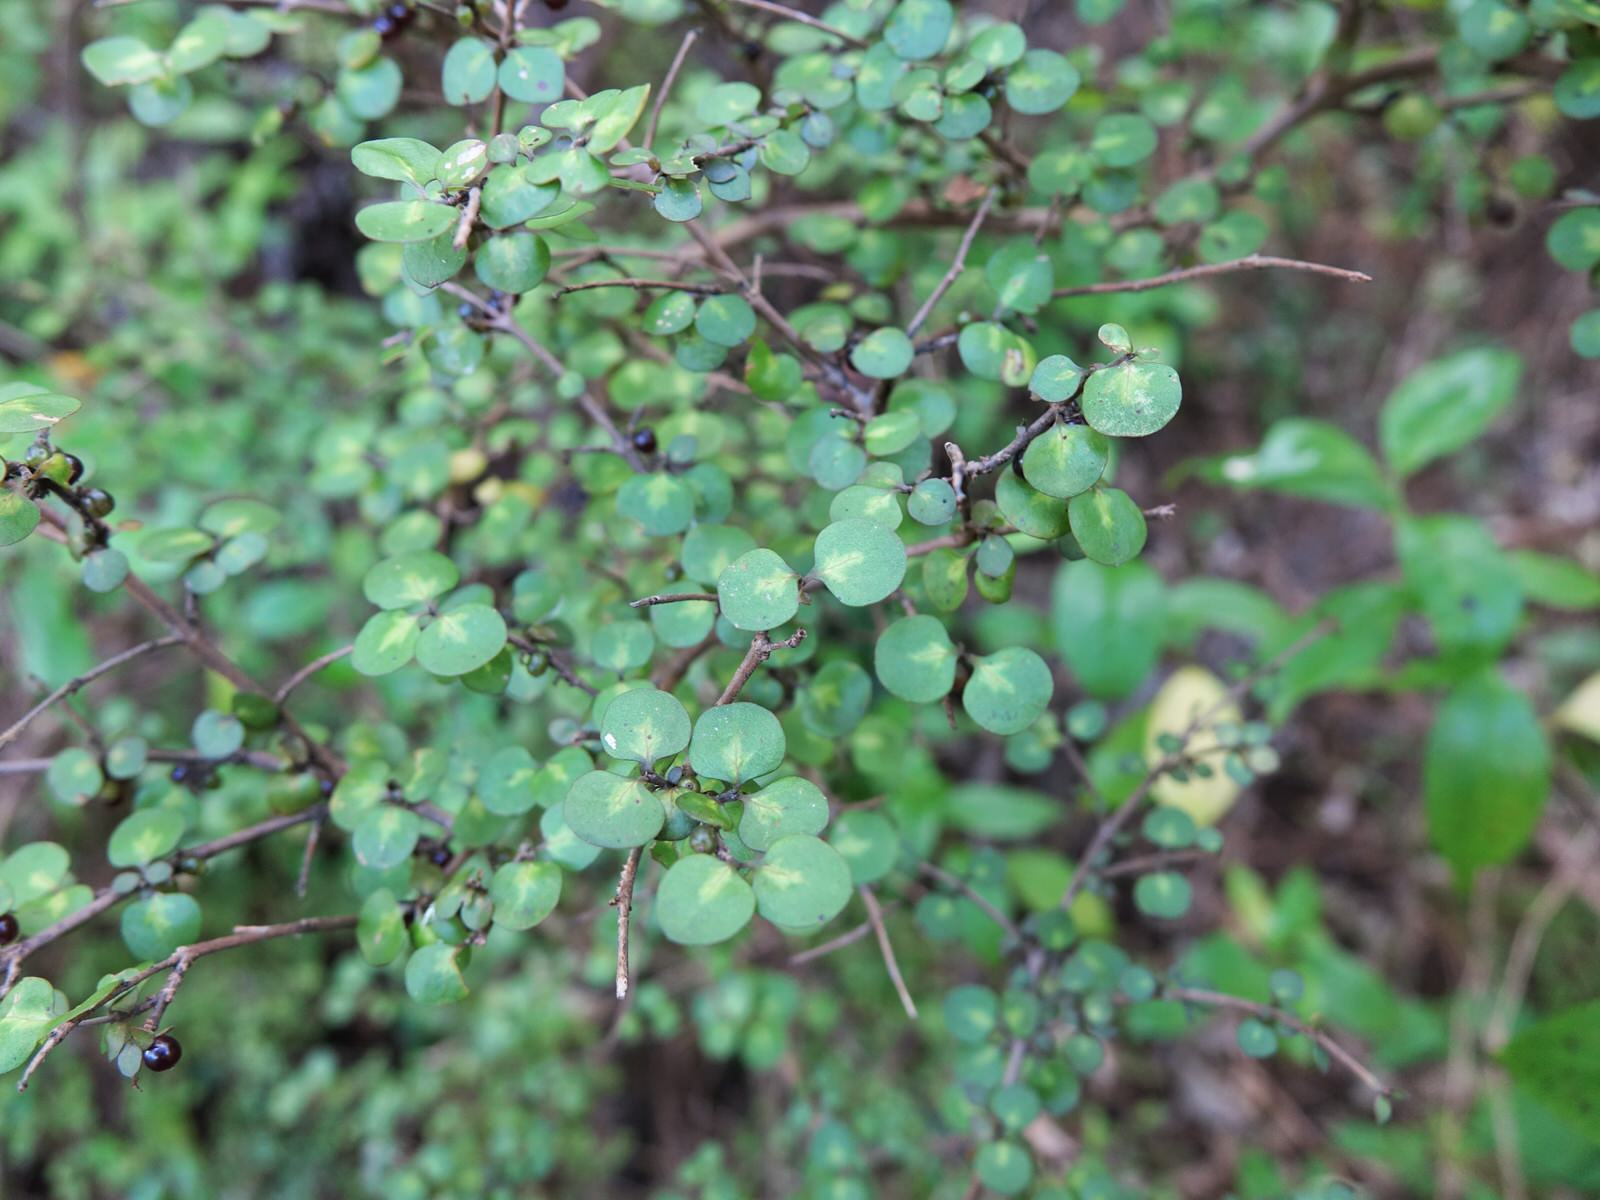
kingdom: Plantae
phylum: Tracheophyta
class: Magnoliopsida
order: Gentianales
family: Rubiaceae
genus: Coprosma
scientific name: Coprosma rhamnoides
